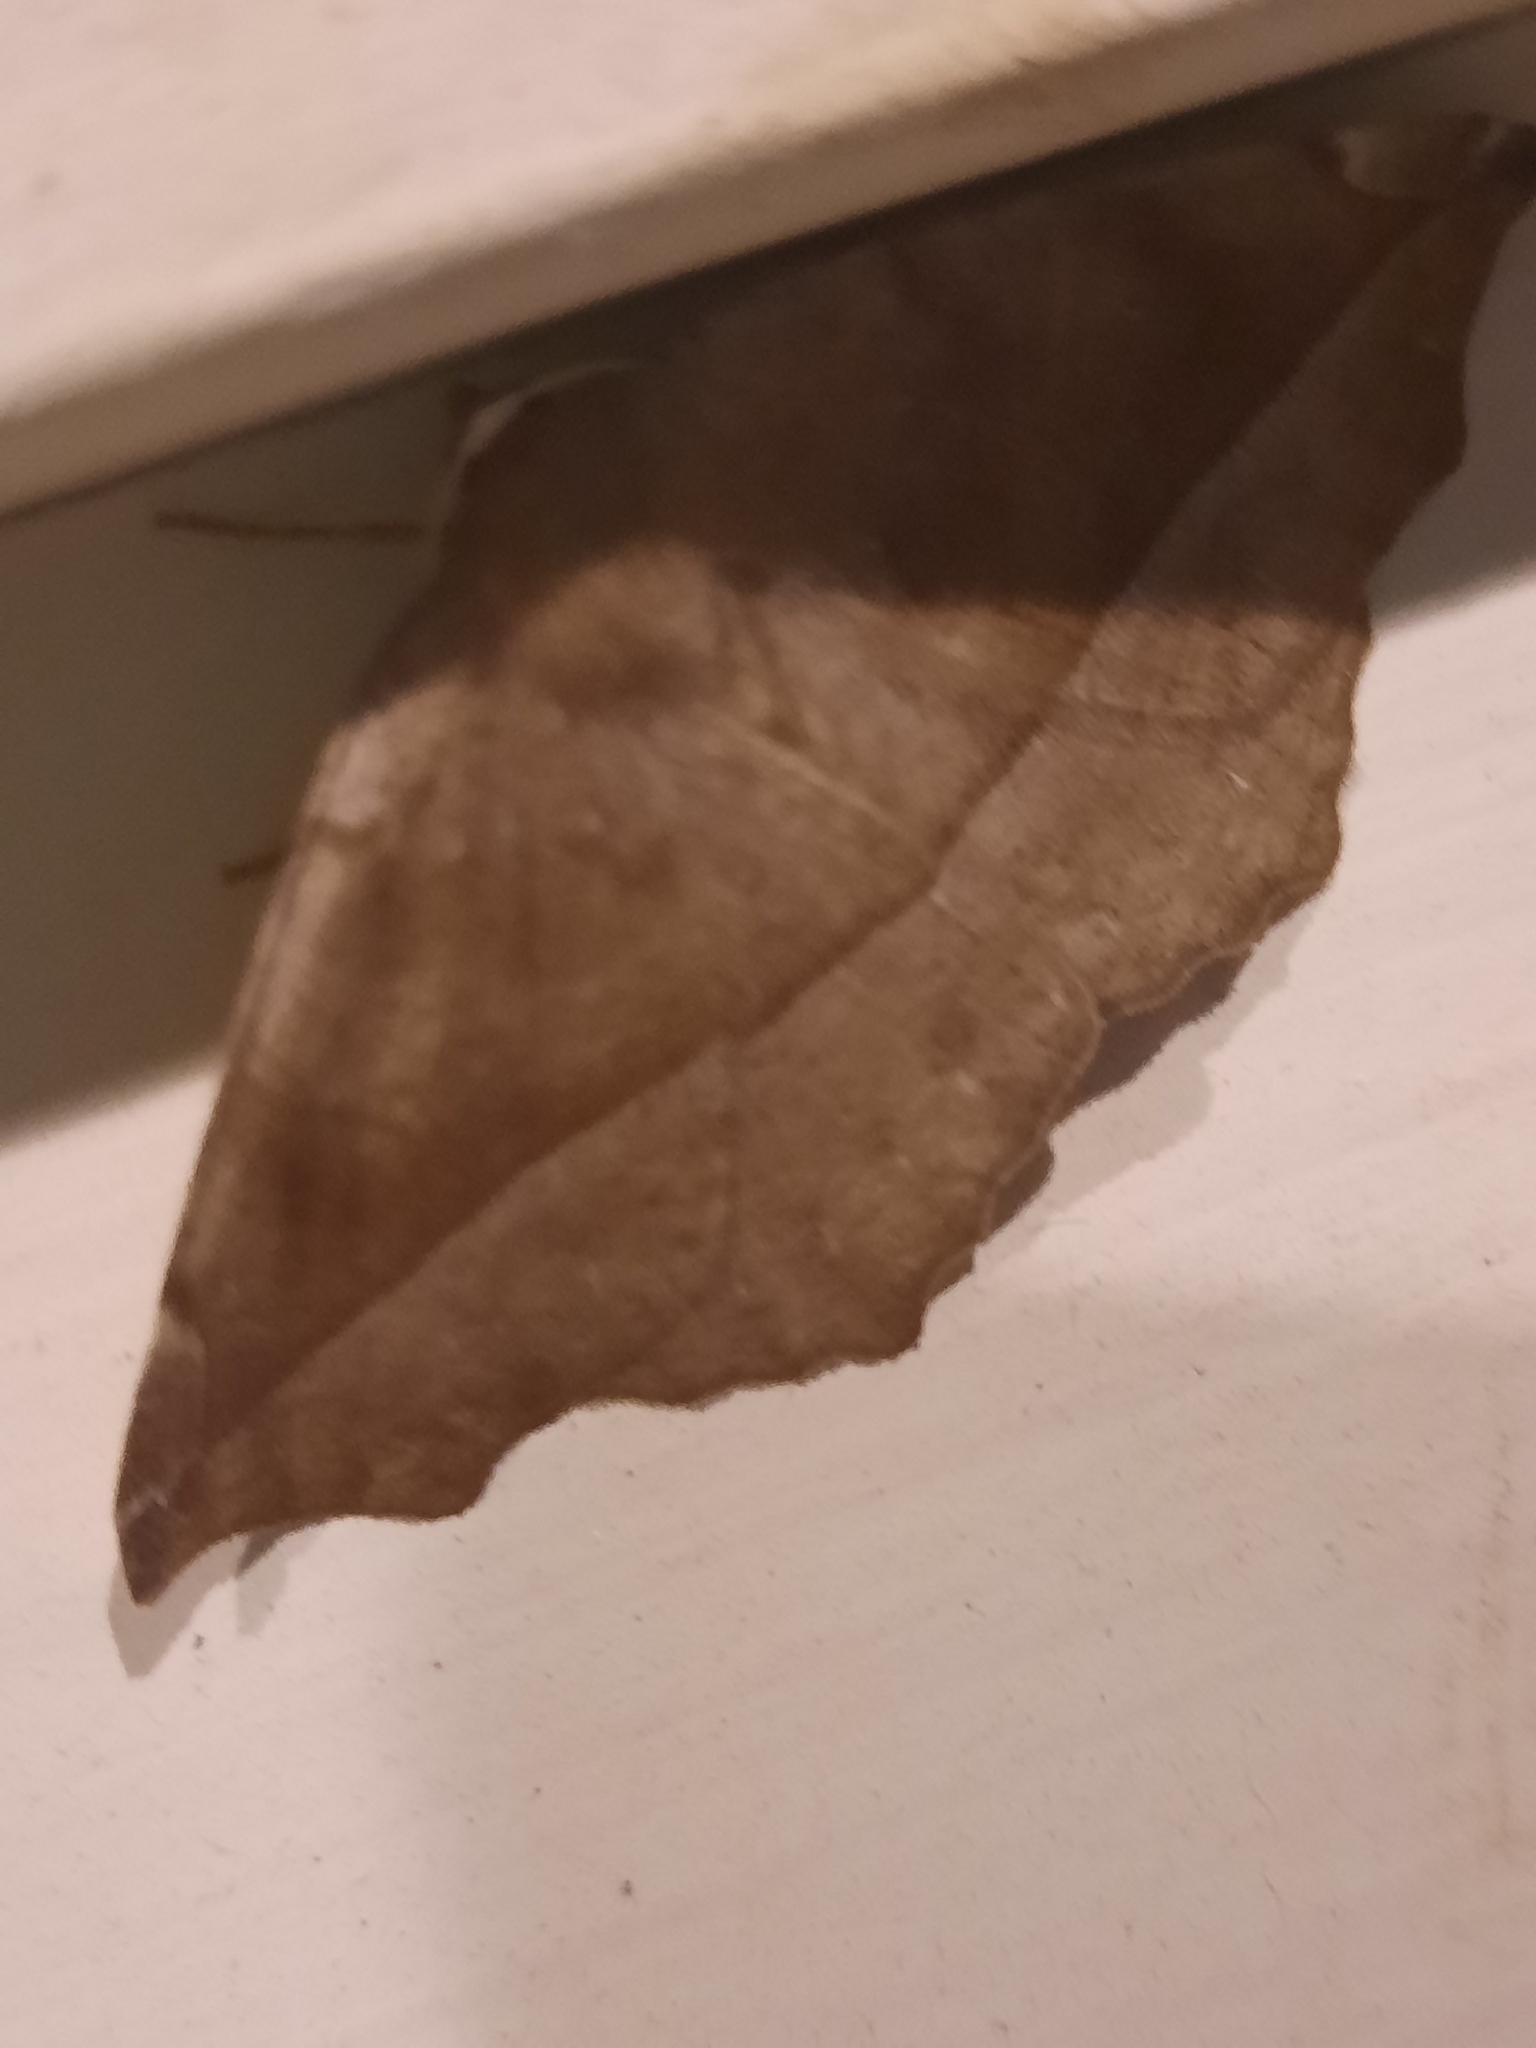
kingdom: Animalia
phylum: Arthropoda
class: Insecta
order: Lepidoptera
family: Geometridae
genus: Eutrapela
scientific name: Eutrapela clemataria
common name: Curved-toothed geometer
